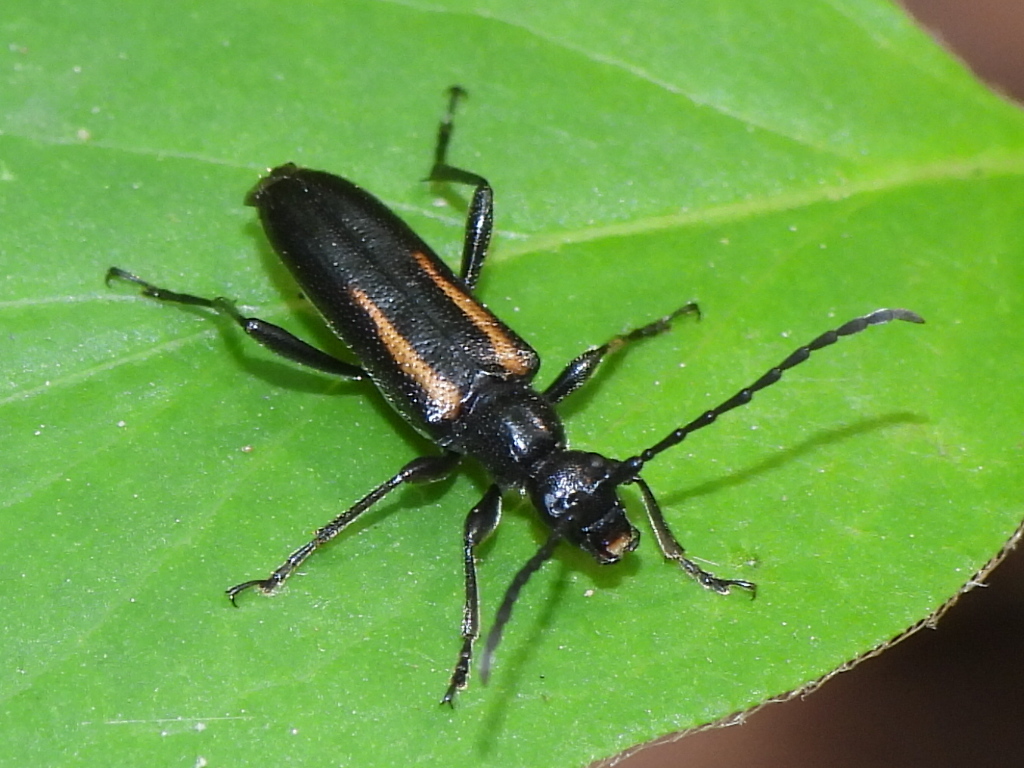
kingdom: Animalia
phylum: Arthropoda
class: Insecta
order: Coleoptera
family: Cerambycidae
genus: Strangalepta
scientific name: Strangalepta abbreviata
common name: Strangalepta flower longhorn beetle
